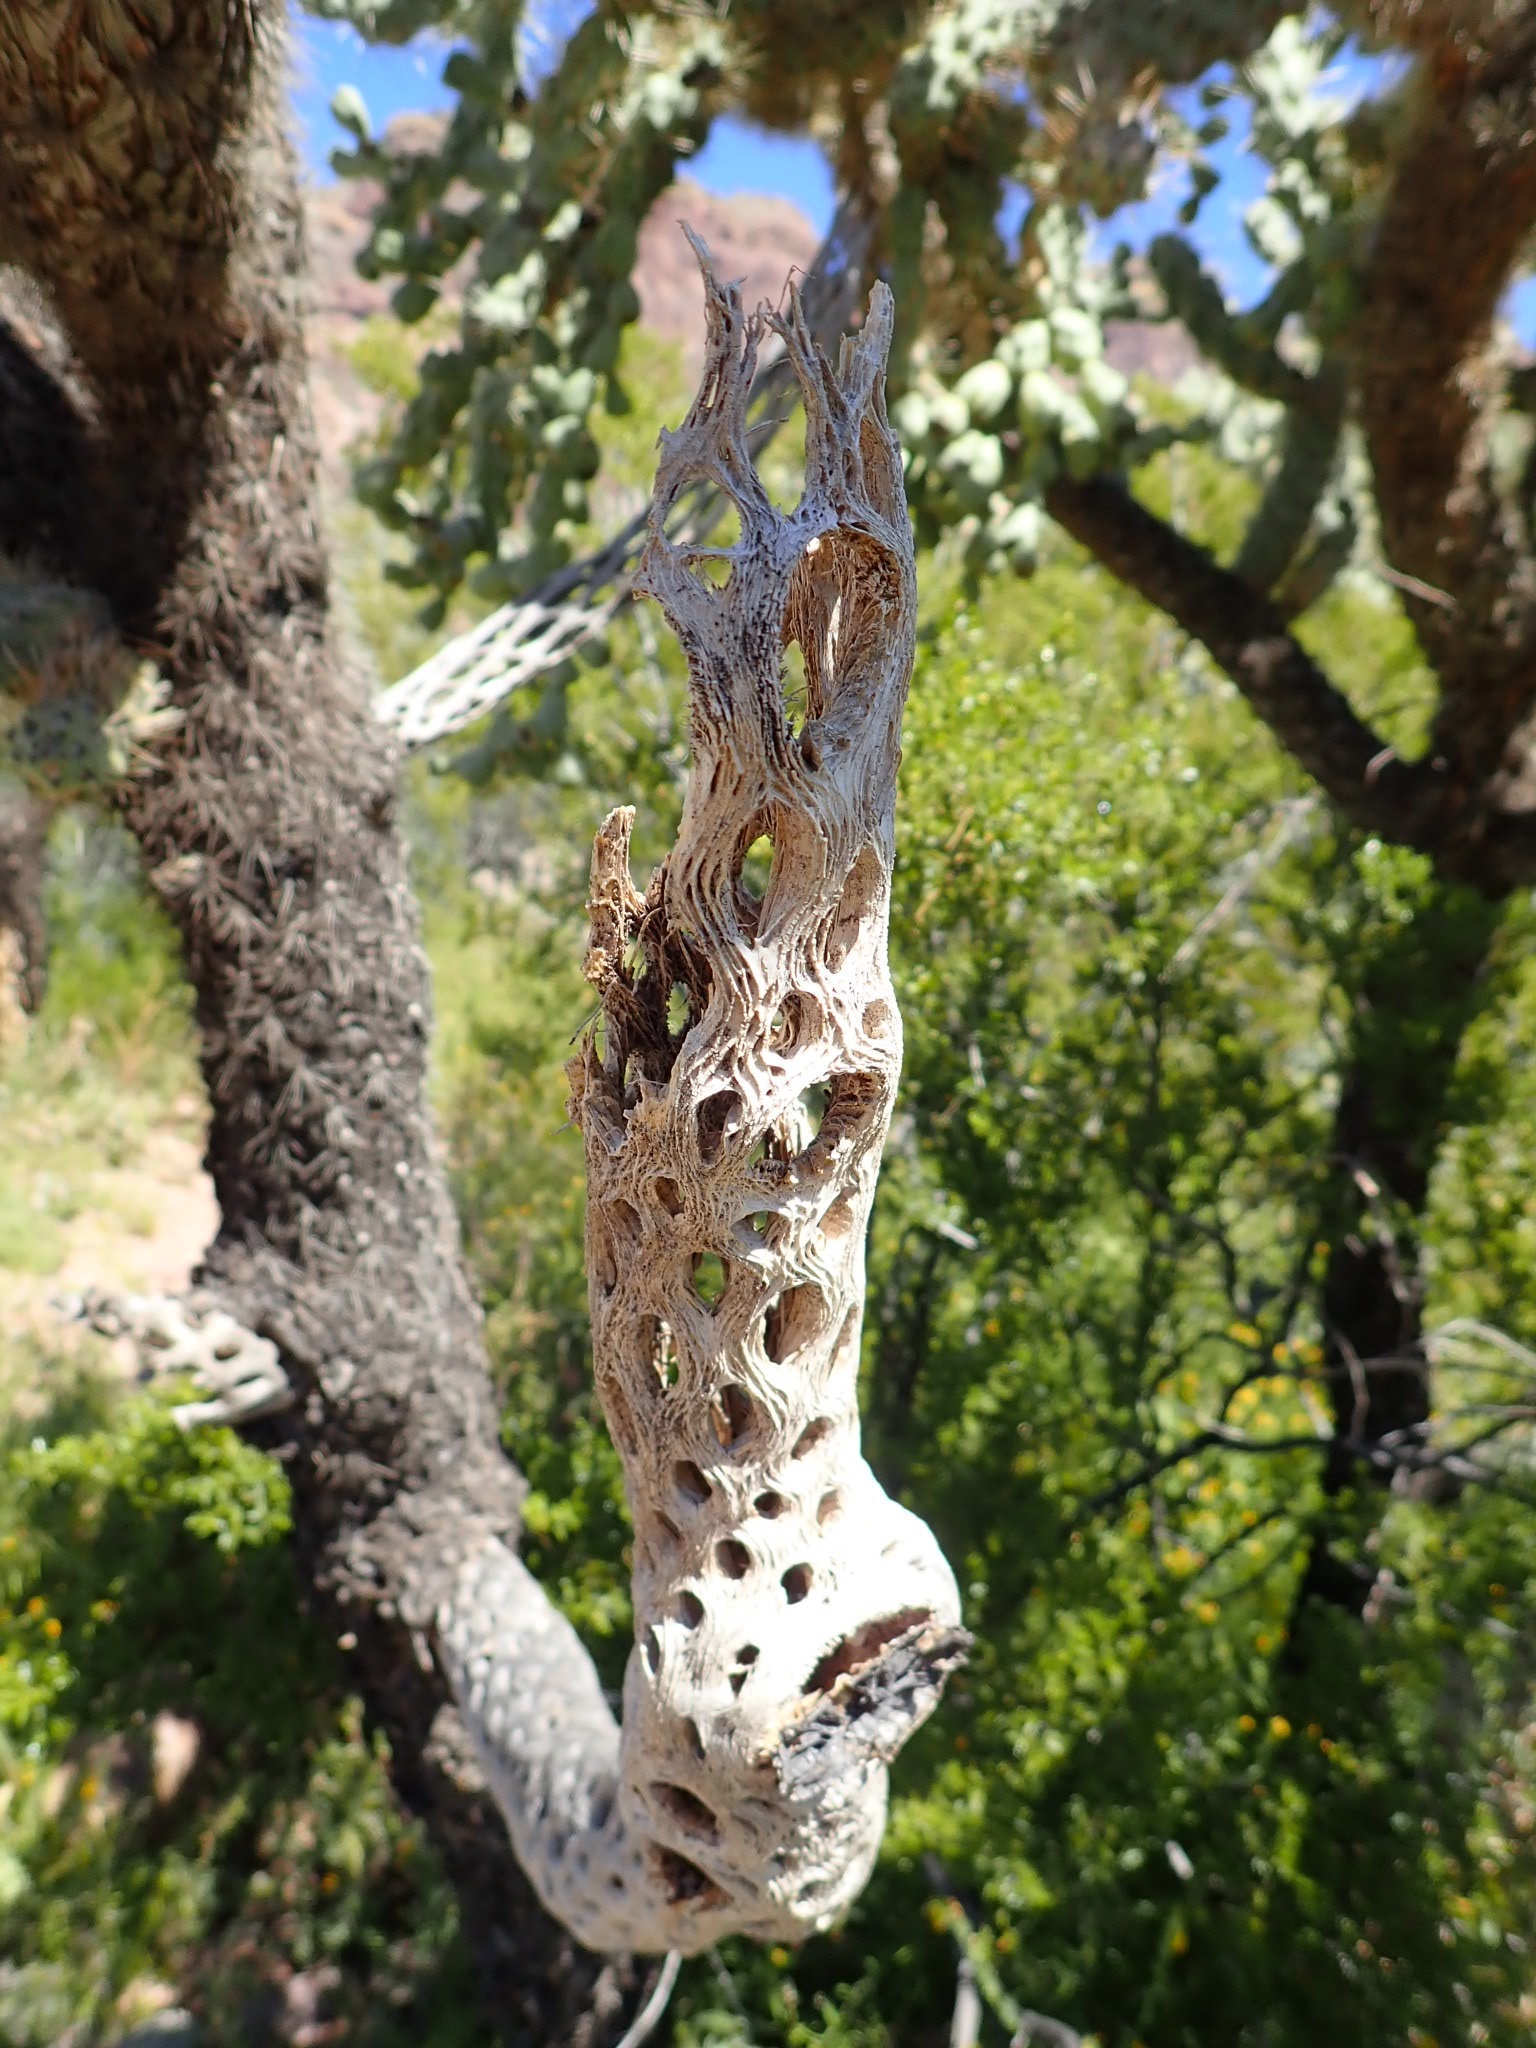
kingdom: Plantae
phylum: Tracheophyta
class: Magnoliopsida
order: Caryophyllales
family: Cactaceae
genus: Cylindropuntia
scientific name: Cylindropuntia fulgida
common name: Jumping cholla
